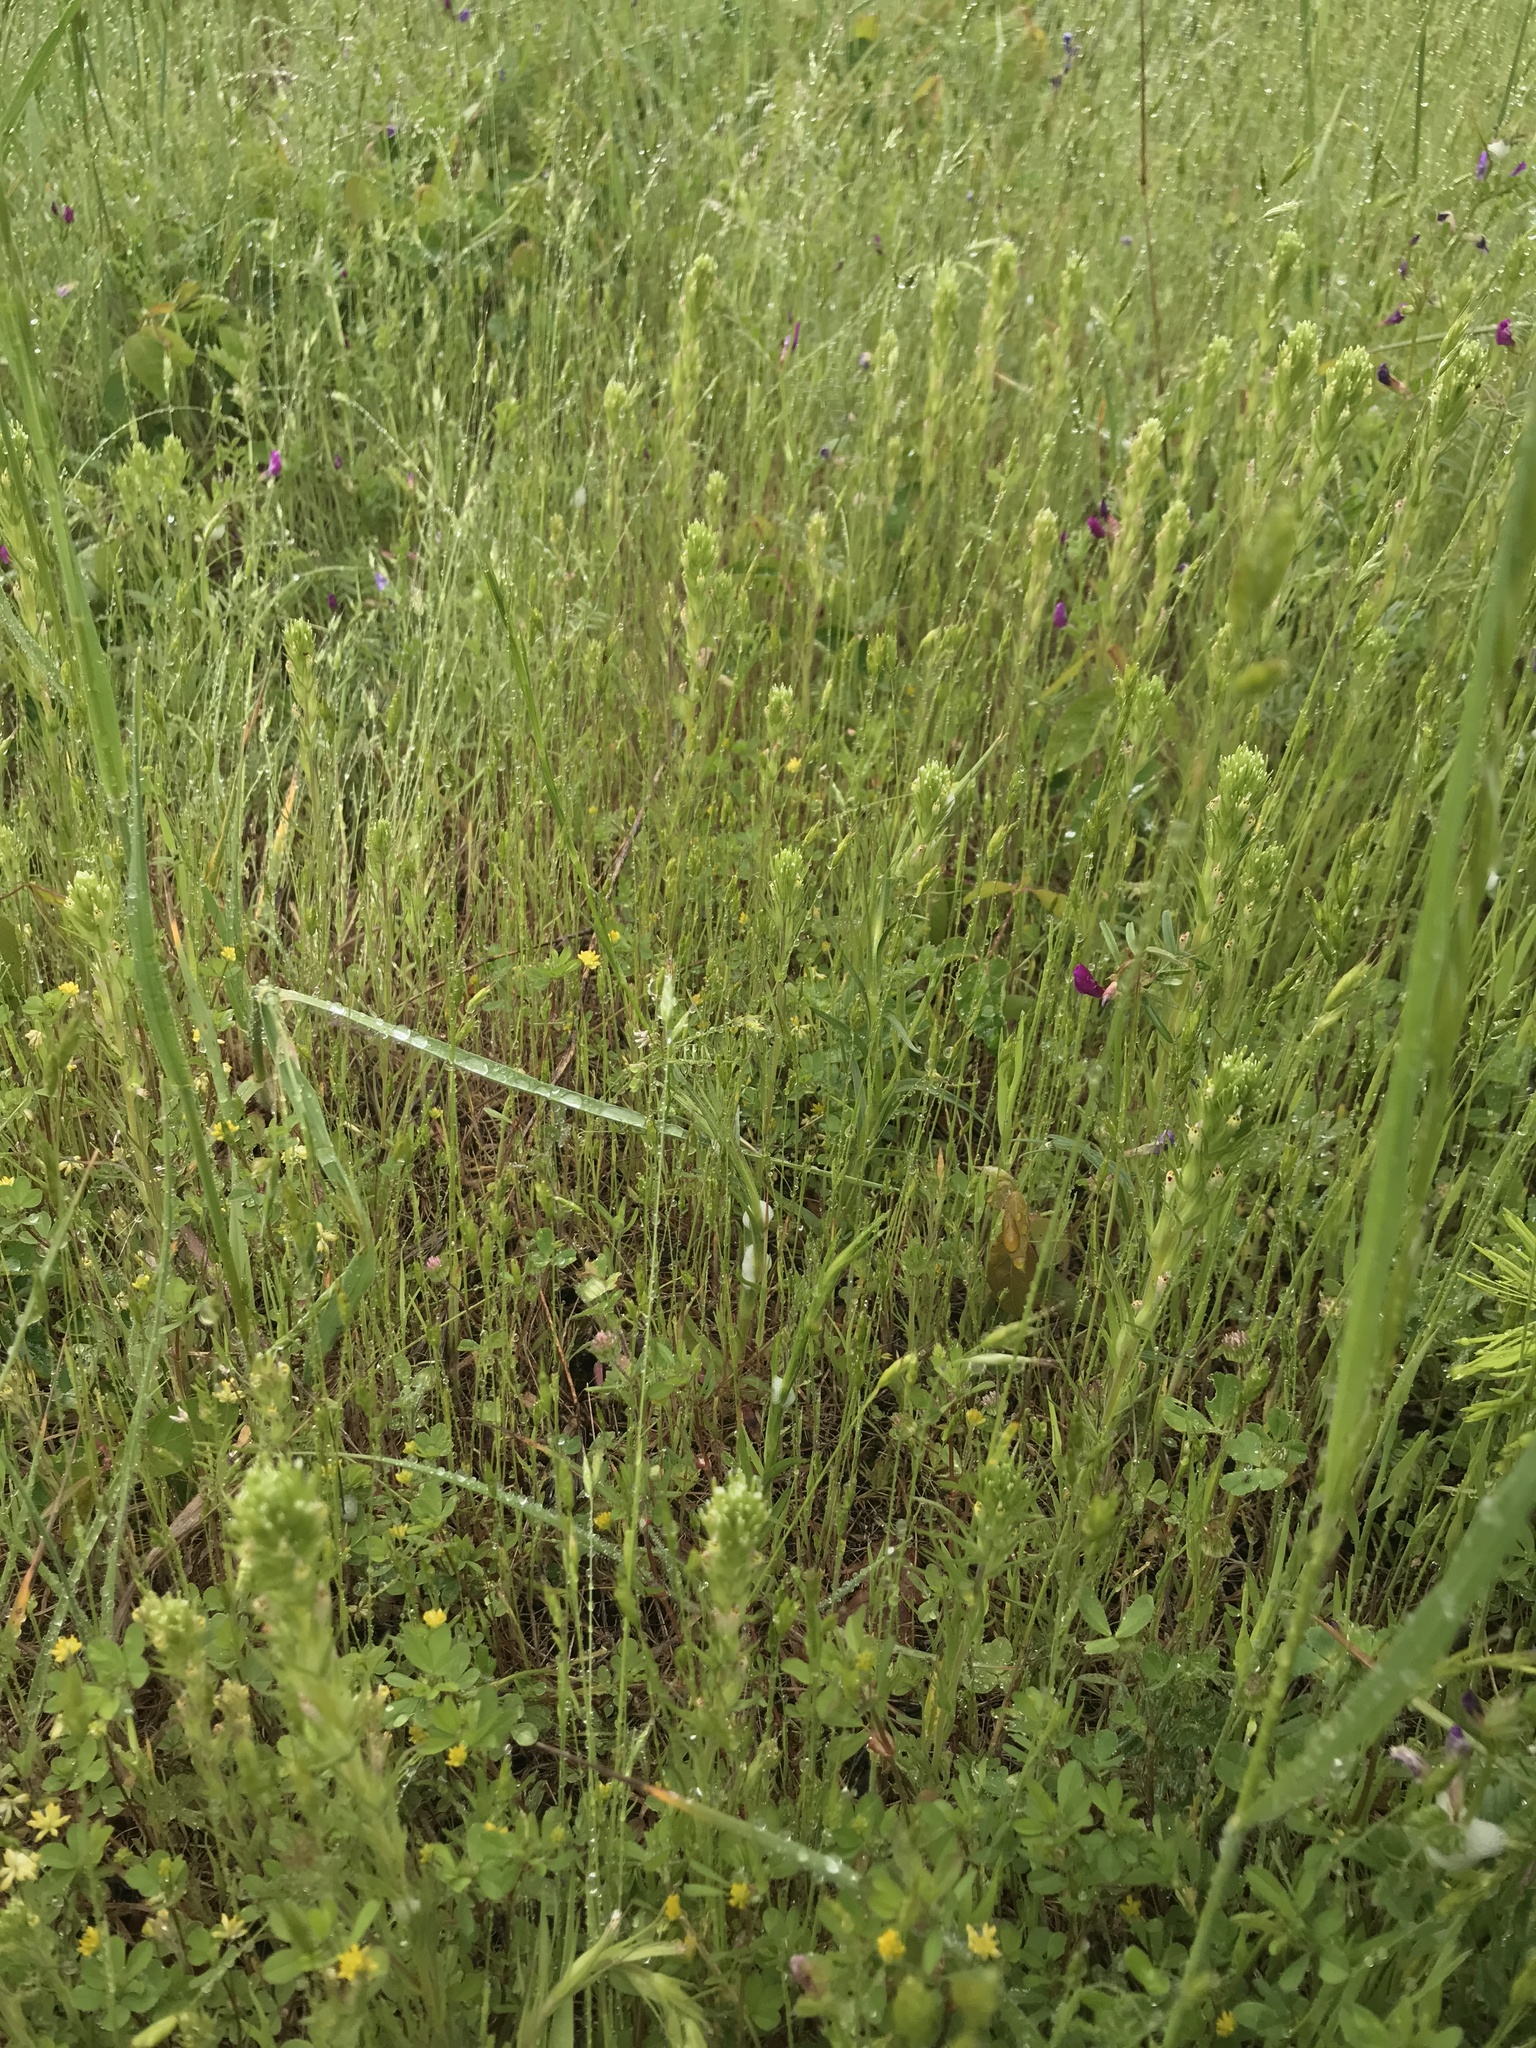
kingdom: Plantae
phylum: Tracheophyta
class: Magnoliopsida
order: Lamiales
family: Orobanchaceae
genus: Castilleja
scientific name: Castilleja attenuata
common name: Valley tassels
